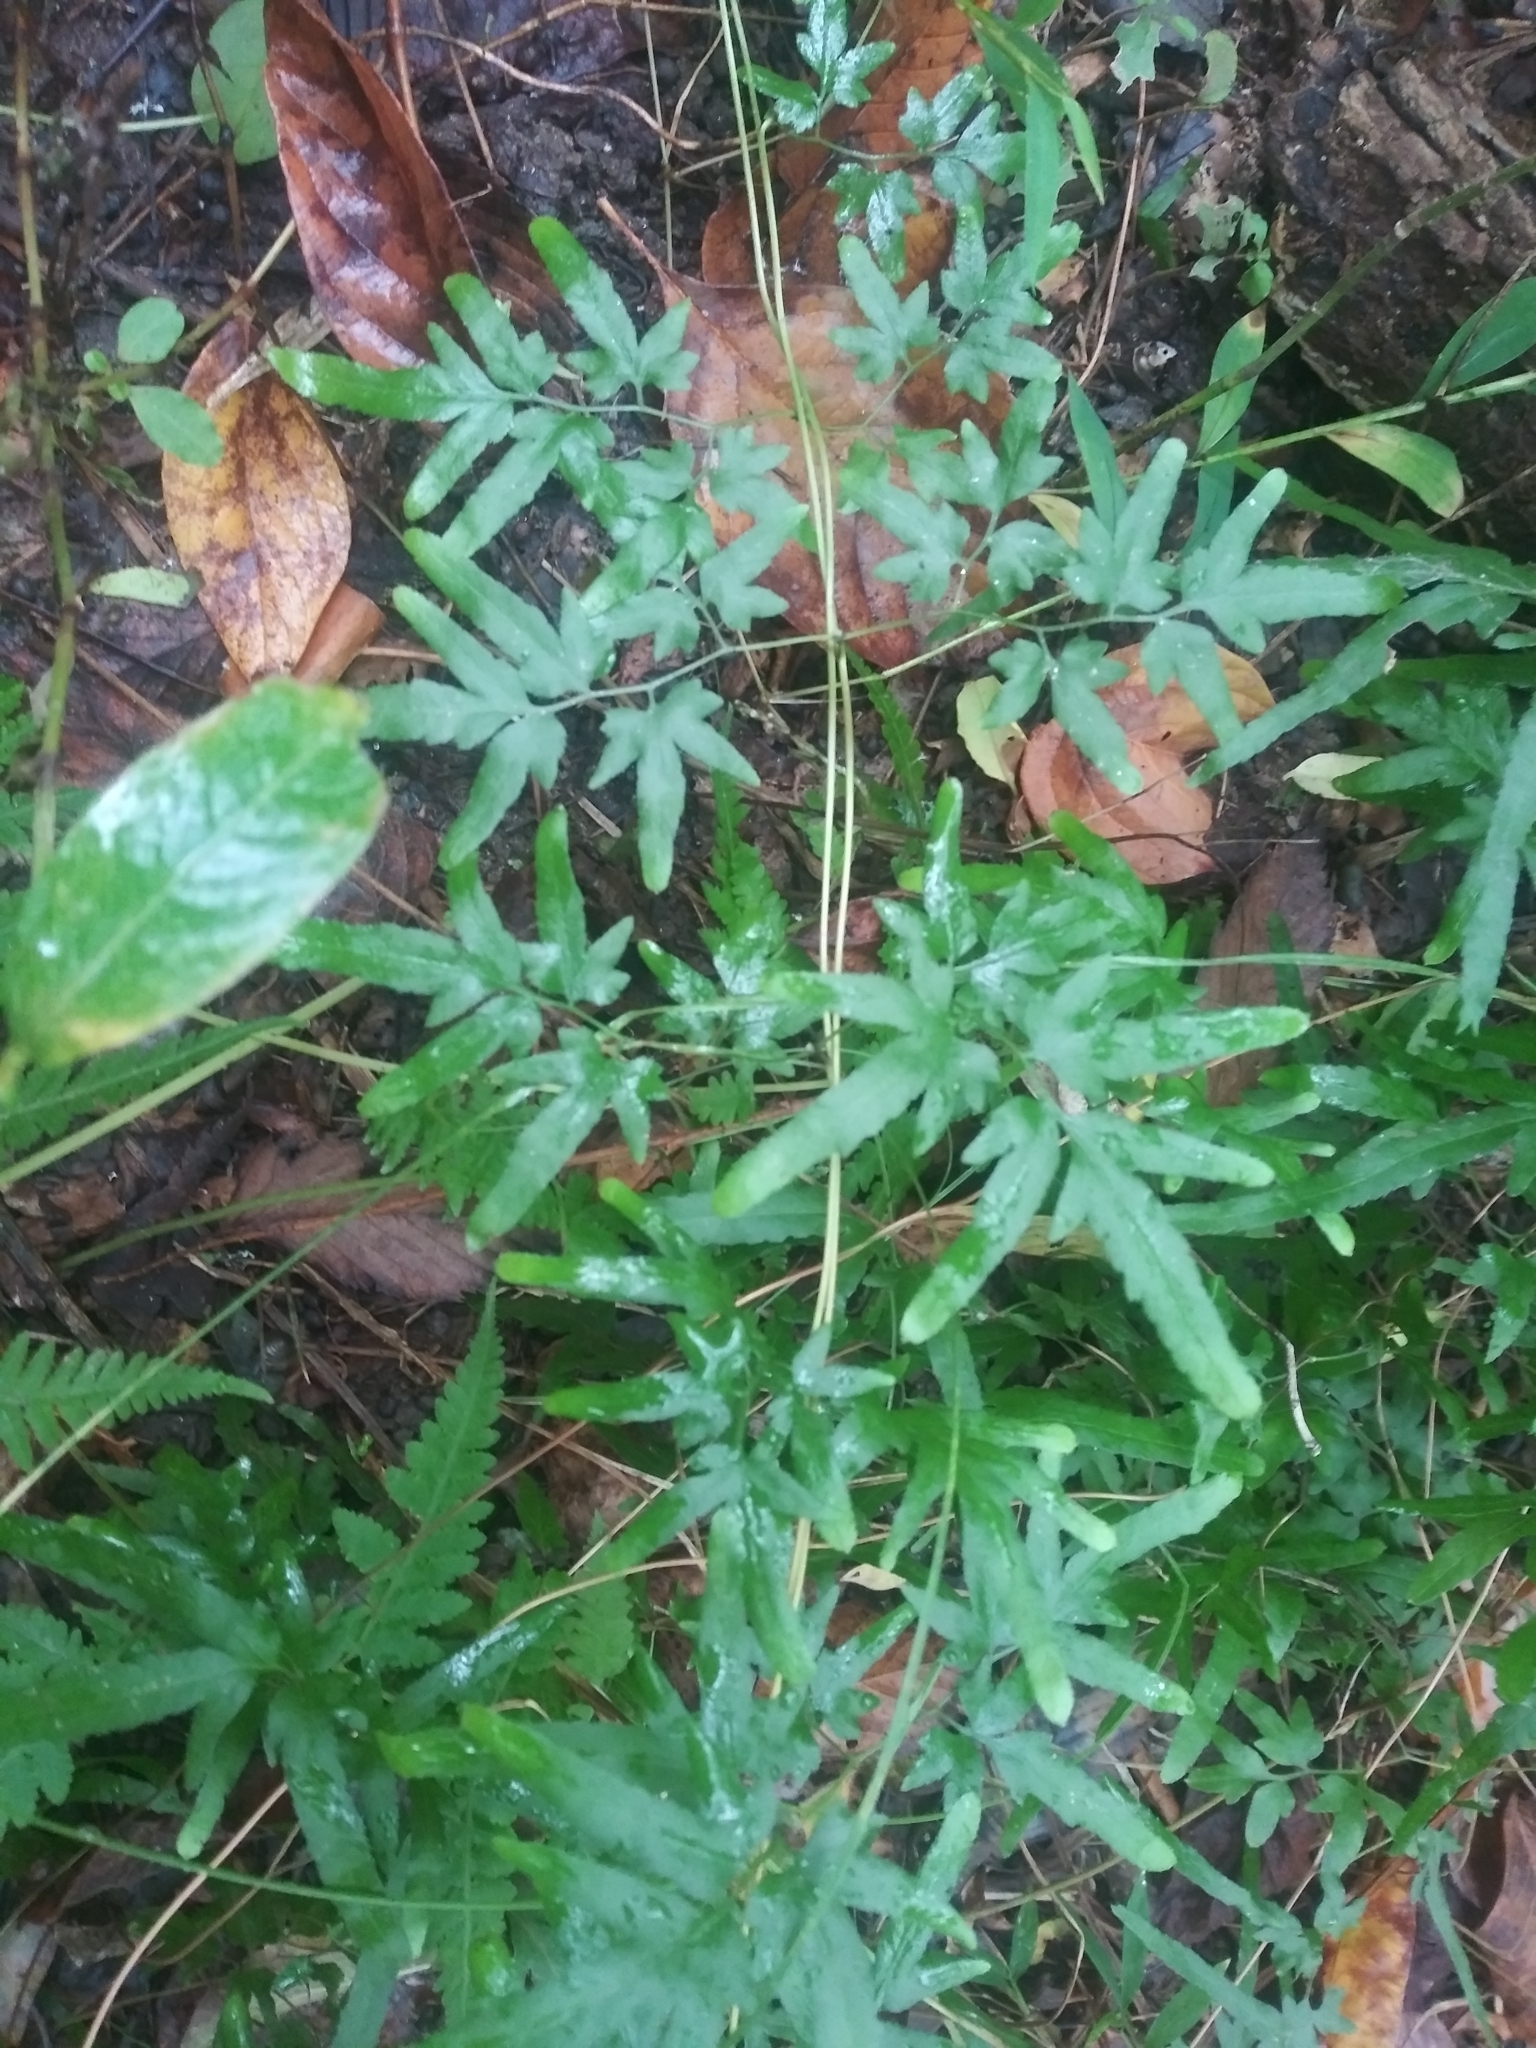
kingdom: Plantae
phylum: Tracheophyta
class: Polypodiopsida
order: Schizaeales
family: Lygodiaceae
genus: Lygodium
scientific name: Lygodium japonicum
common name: Japanese climbing fern
